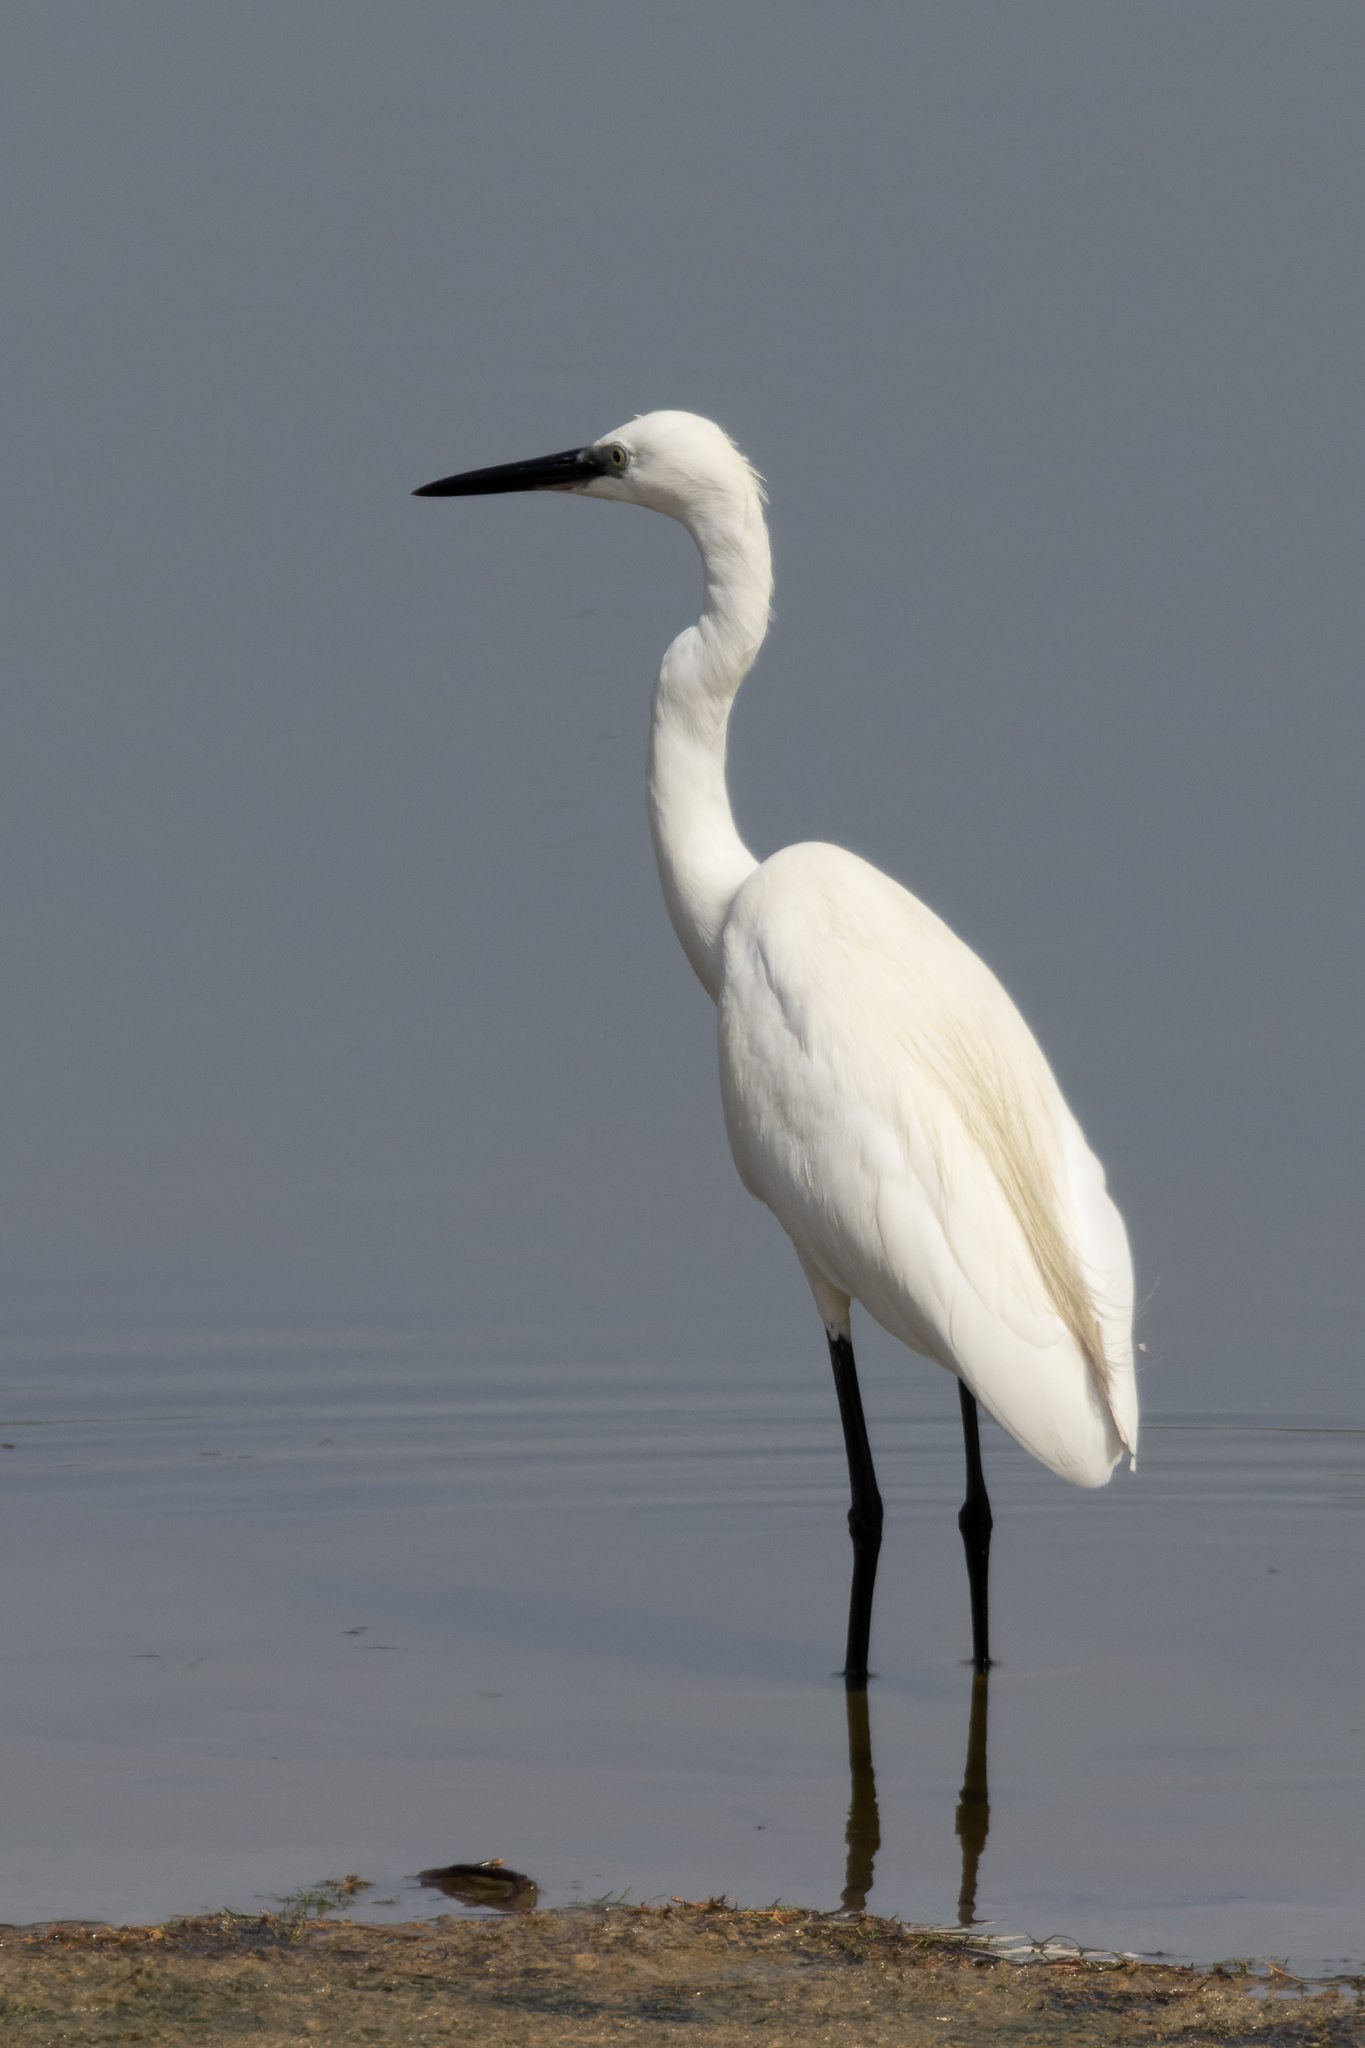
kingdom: Animalia
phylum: Chordata
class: Aves
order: Pelecaniformes
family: Ardeidae
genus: Egretta
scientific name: Egretta garzetta
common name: Little egret
